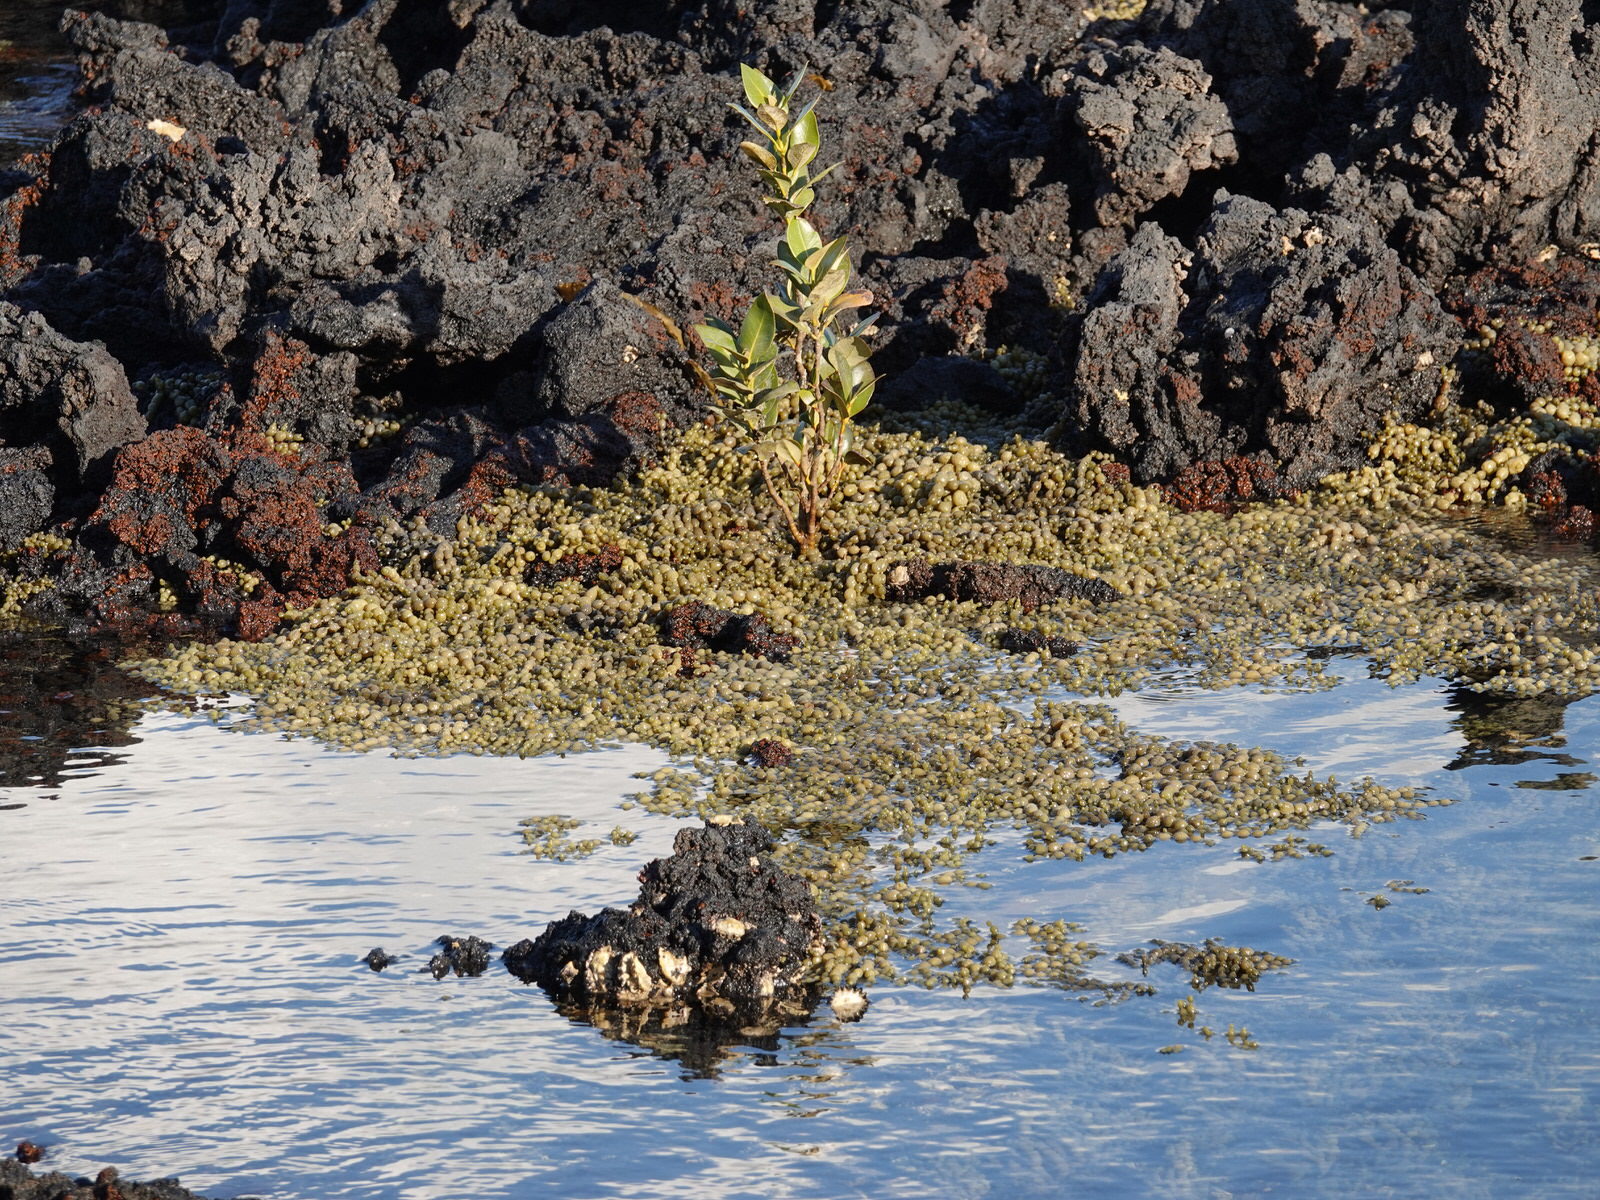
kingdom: Chromista
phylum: Ochrophyta
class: Phaeophyceae
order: Fucales
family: Hormosiraceae
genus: Hormosira
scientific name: Hormosira banksii
